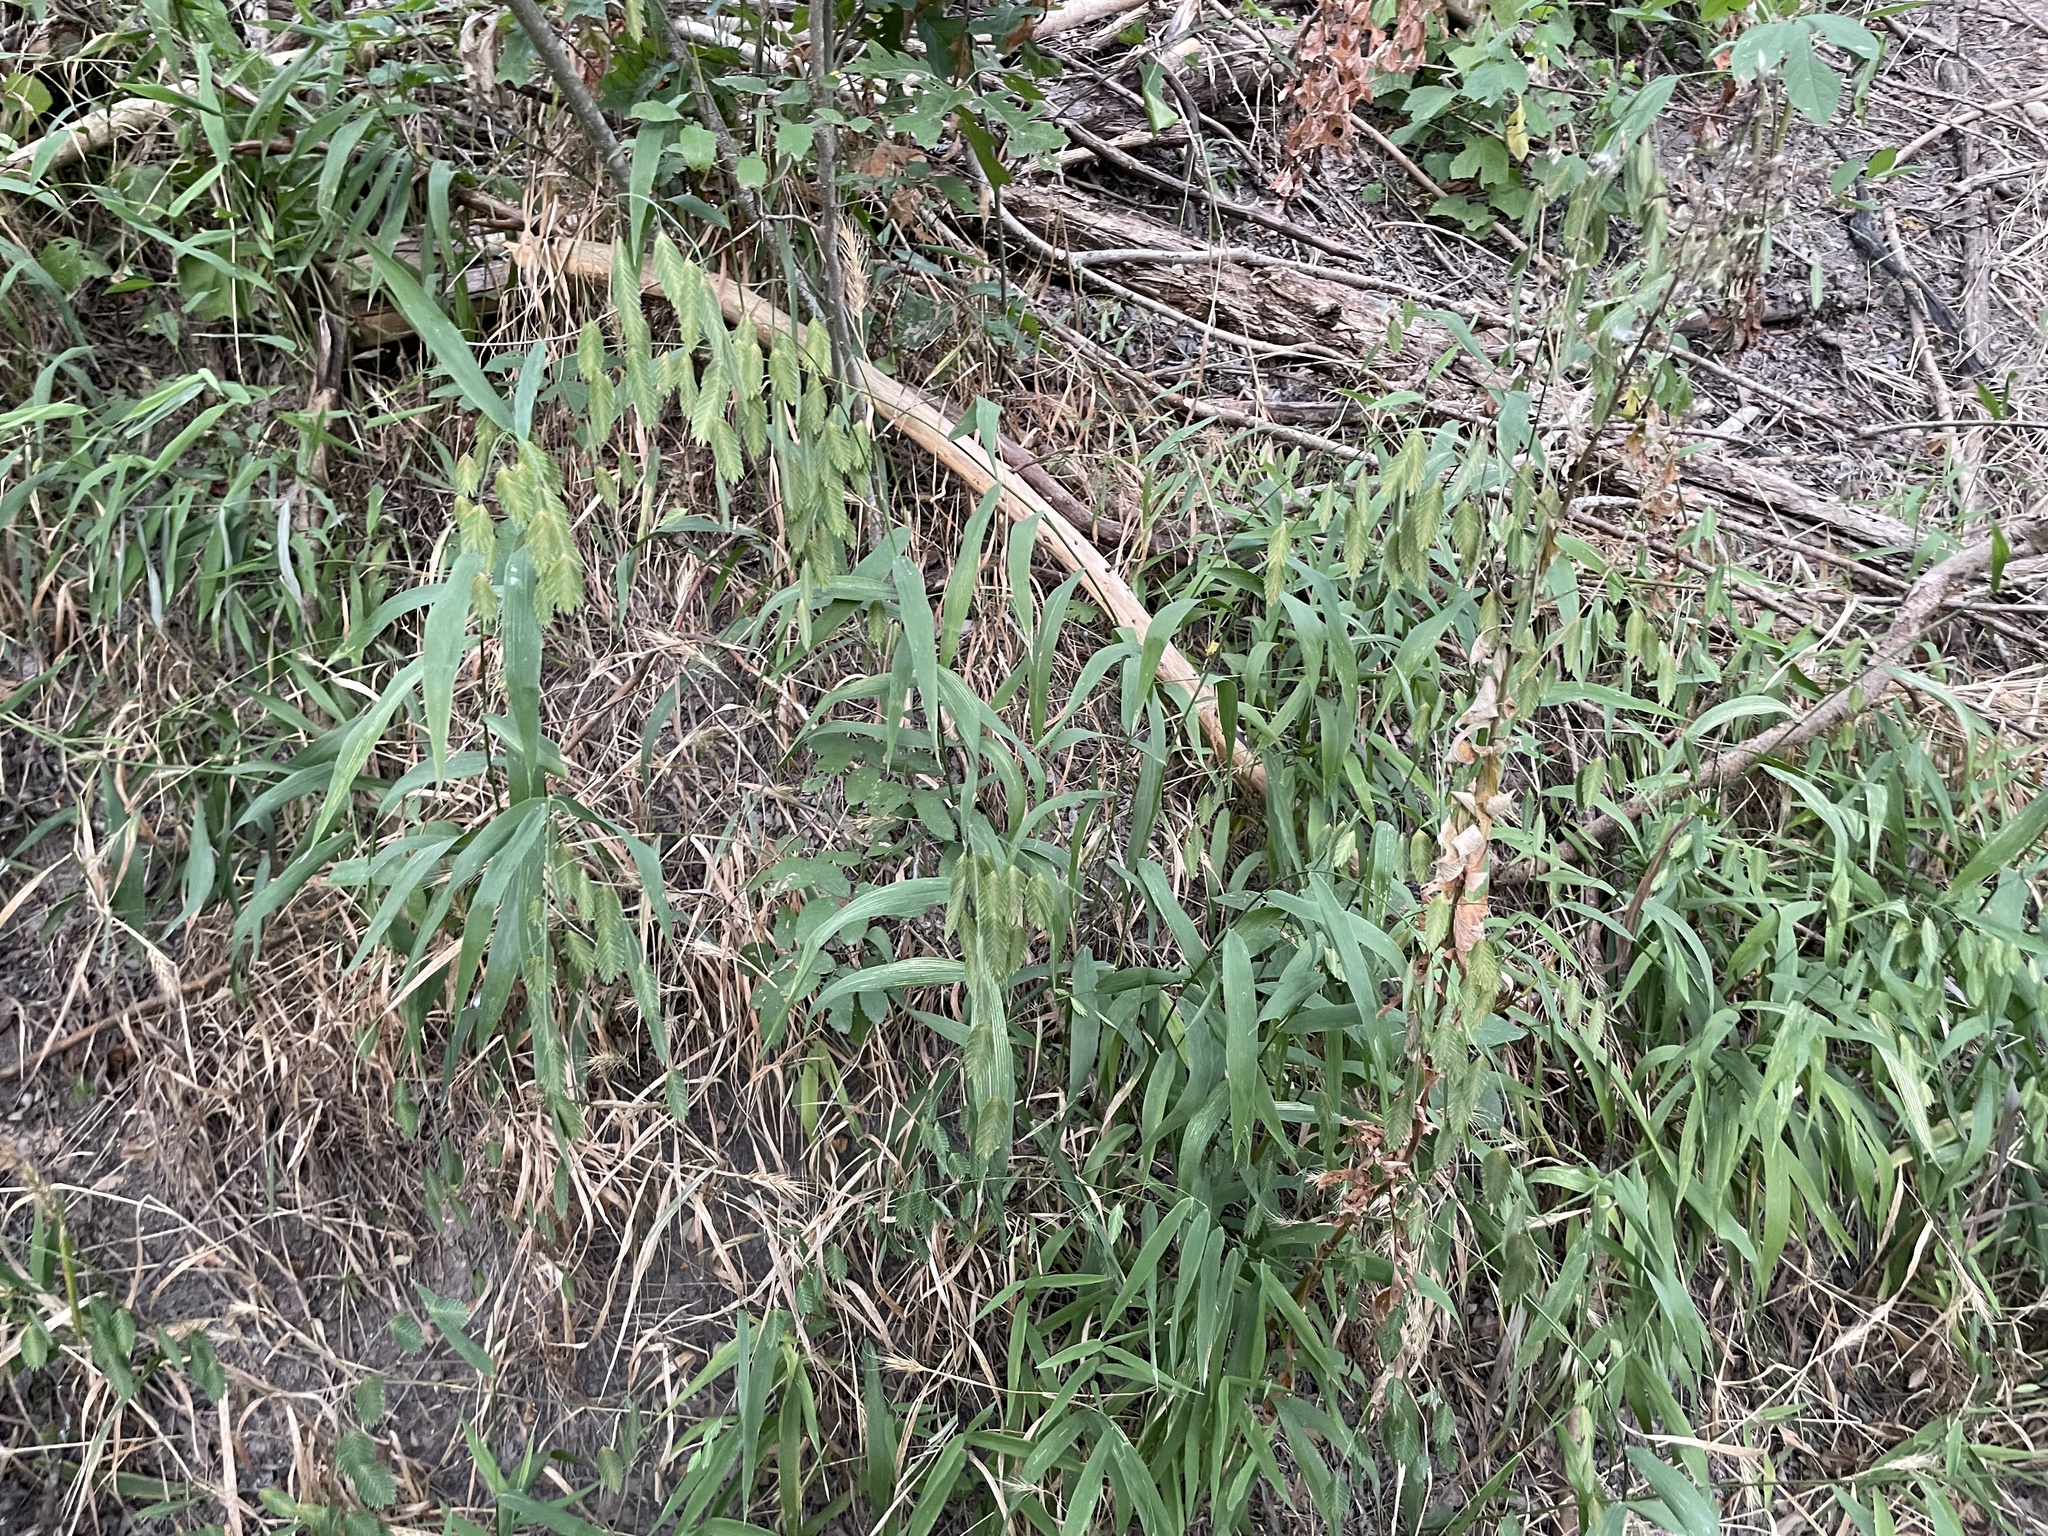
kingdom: Plantae
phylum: Tracheophyta
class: Liliopsida
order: Poales
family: Poaceae
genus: Chasmanthium
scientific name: Chasmanthium latifolium
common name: Broad-leaved chasmanthium
